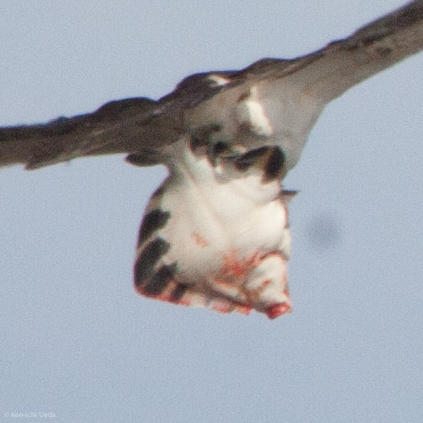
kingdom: Animalia
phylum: Chordata
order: Pleuronectiformes
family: Pleuronectidae
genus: Platichthys
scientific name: Platichthys stellatus
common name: Starry flounder
